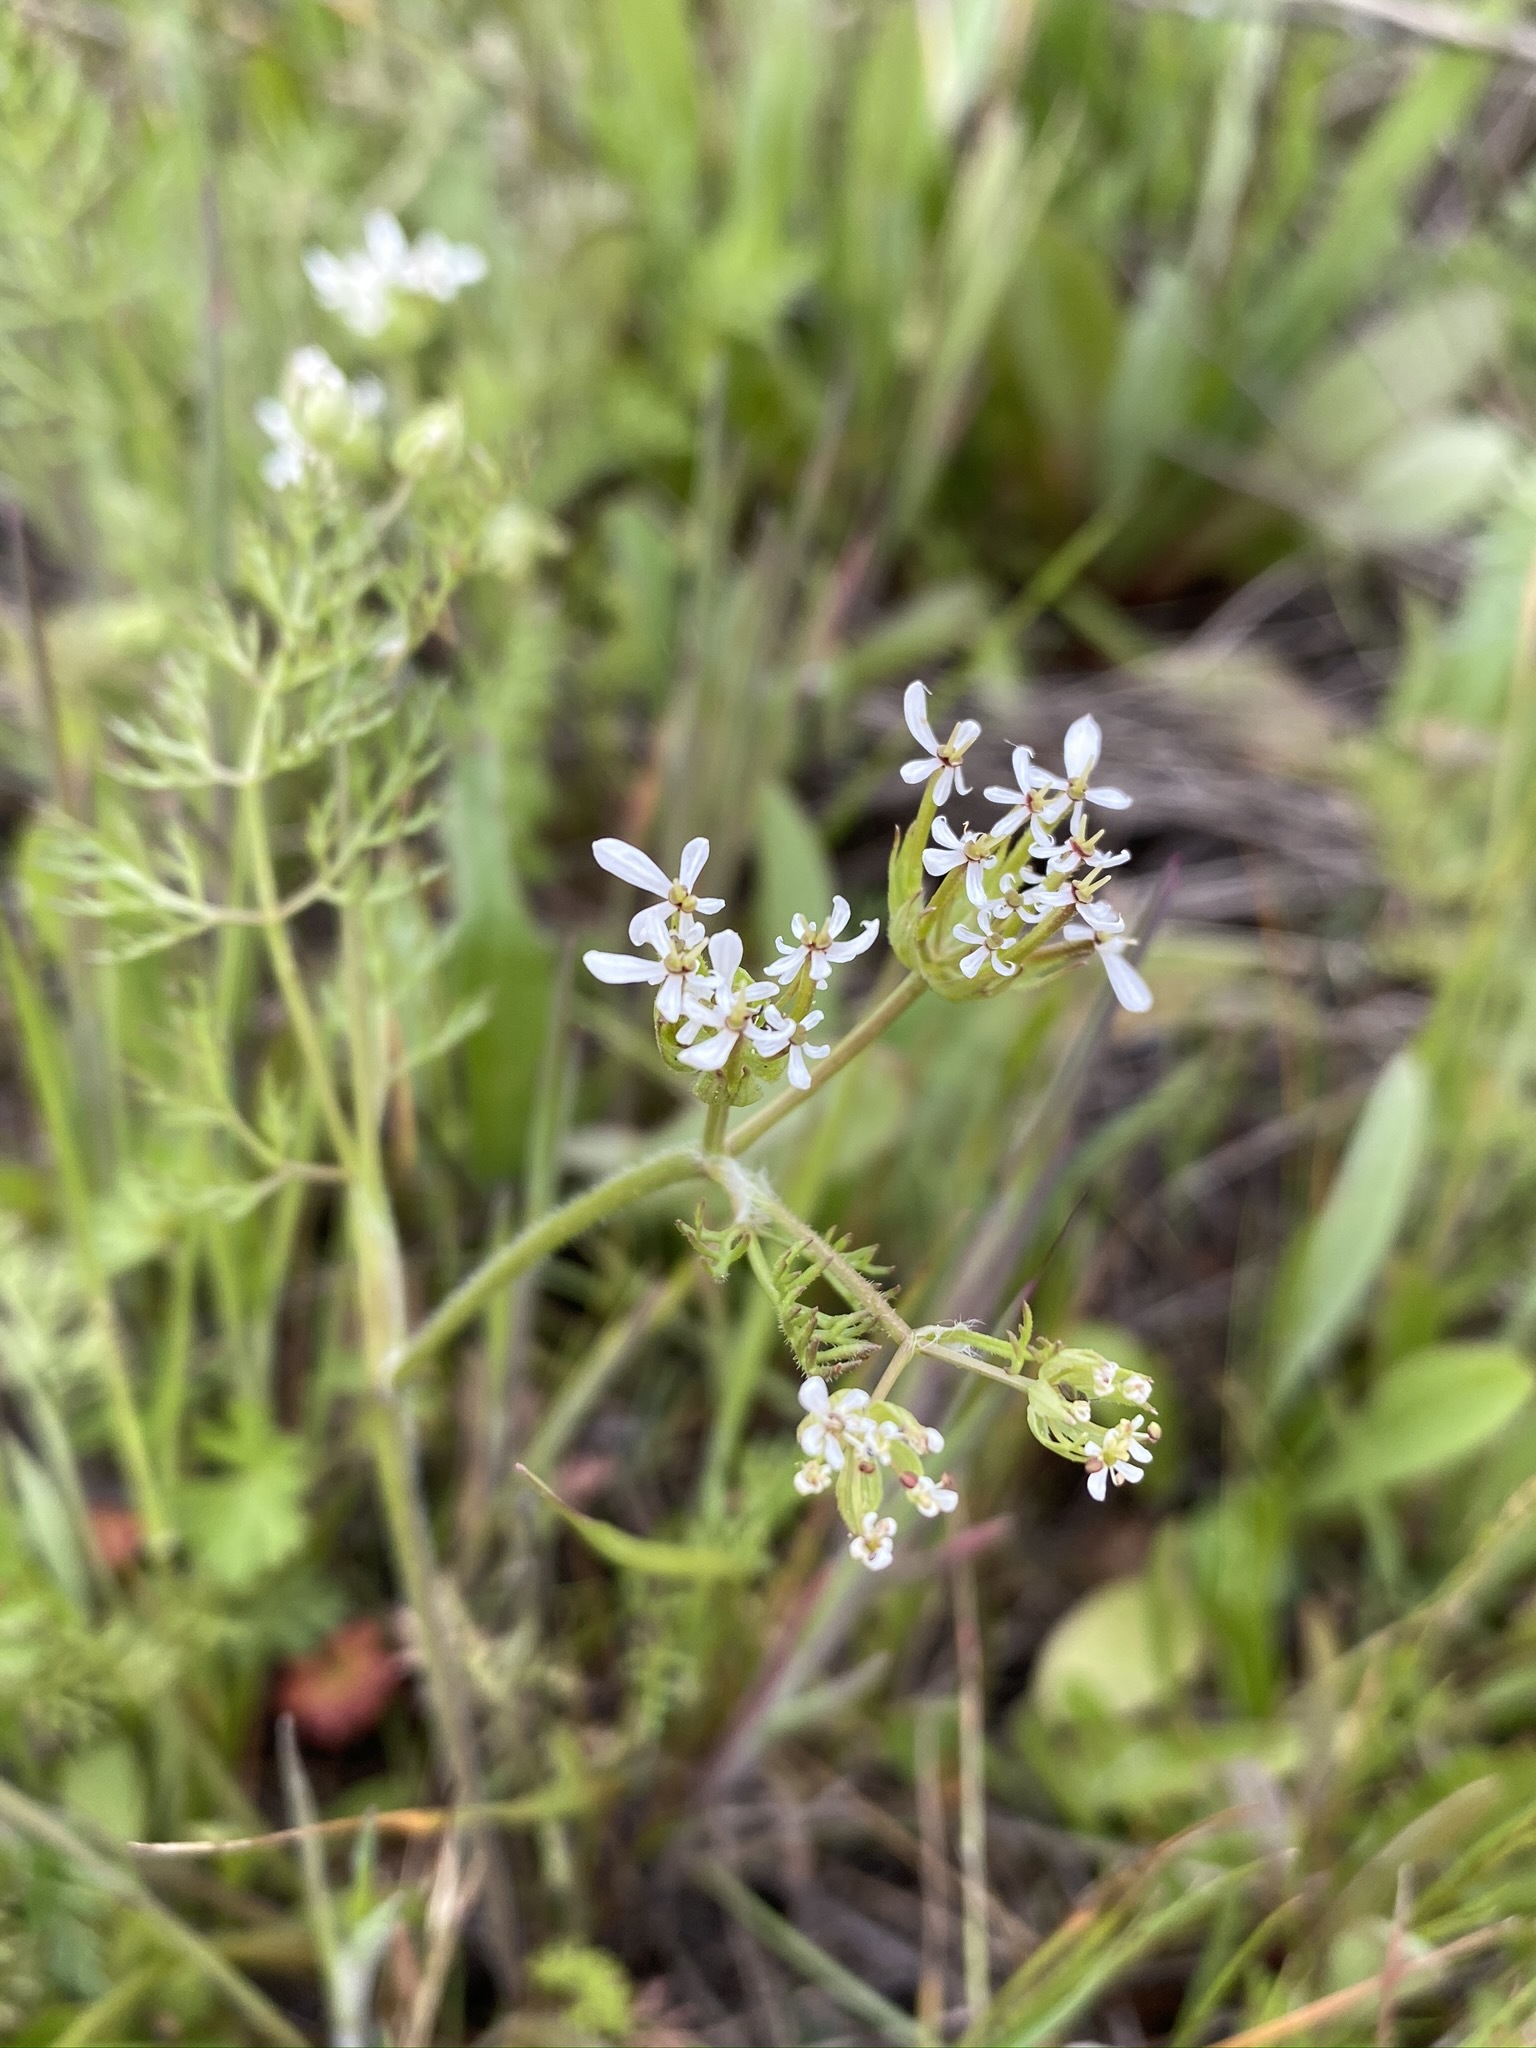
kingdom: Plantae
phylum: Tracheophyta
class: Magnoliopsida
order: Apiales
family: Apiaceae
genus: Scandix
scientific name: Scandix pecten-veneris
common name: Shepherd's-needle
